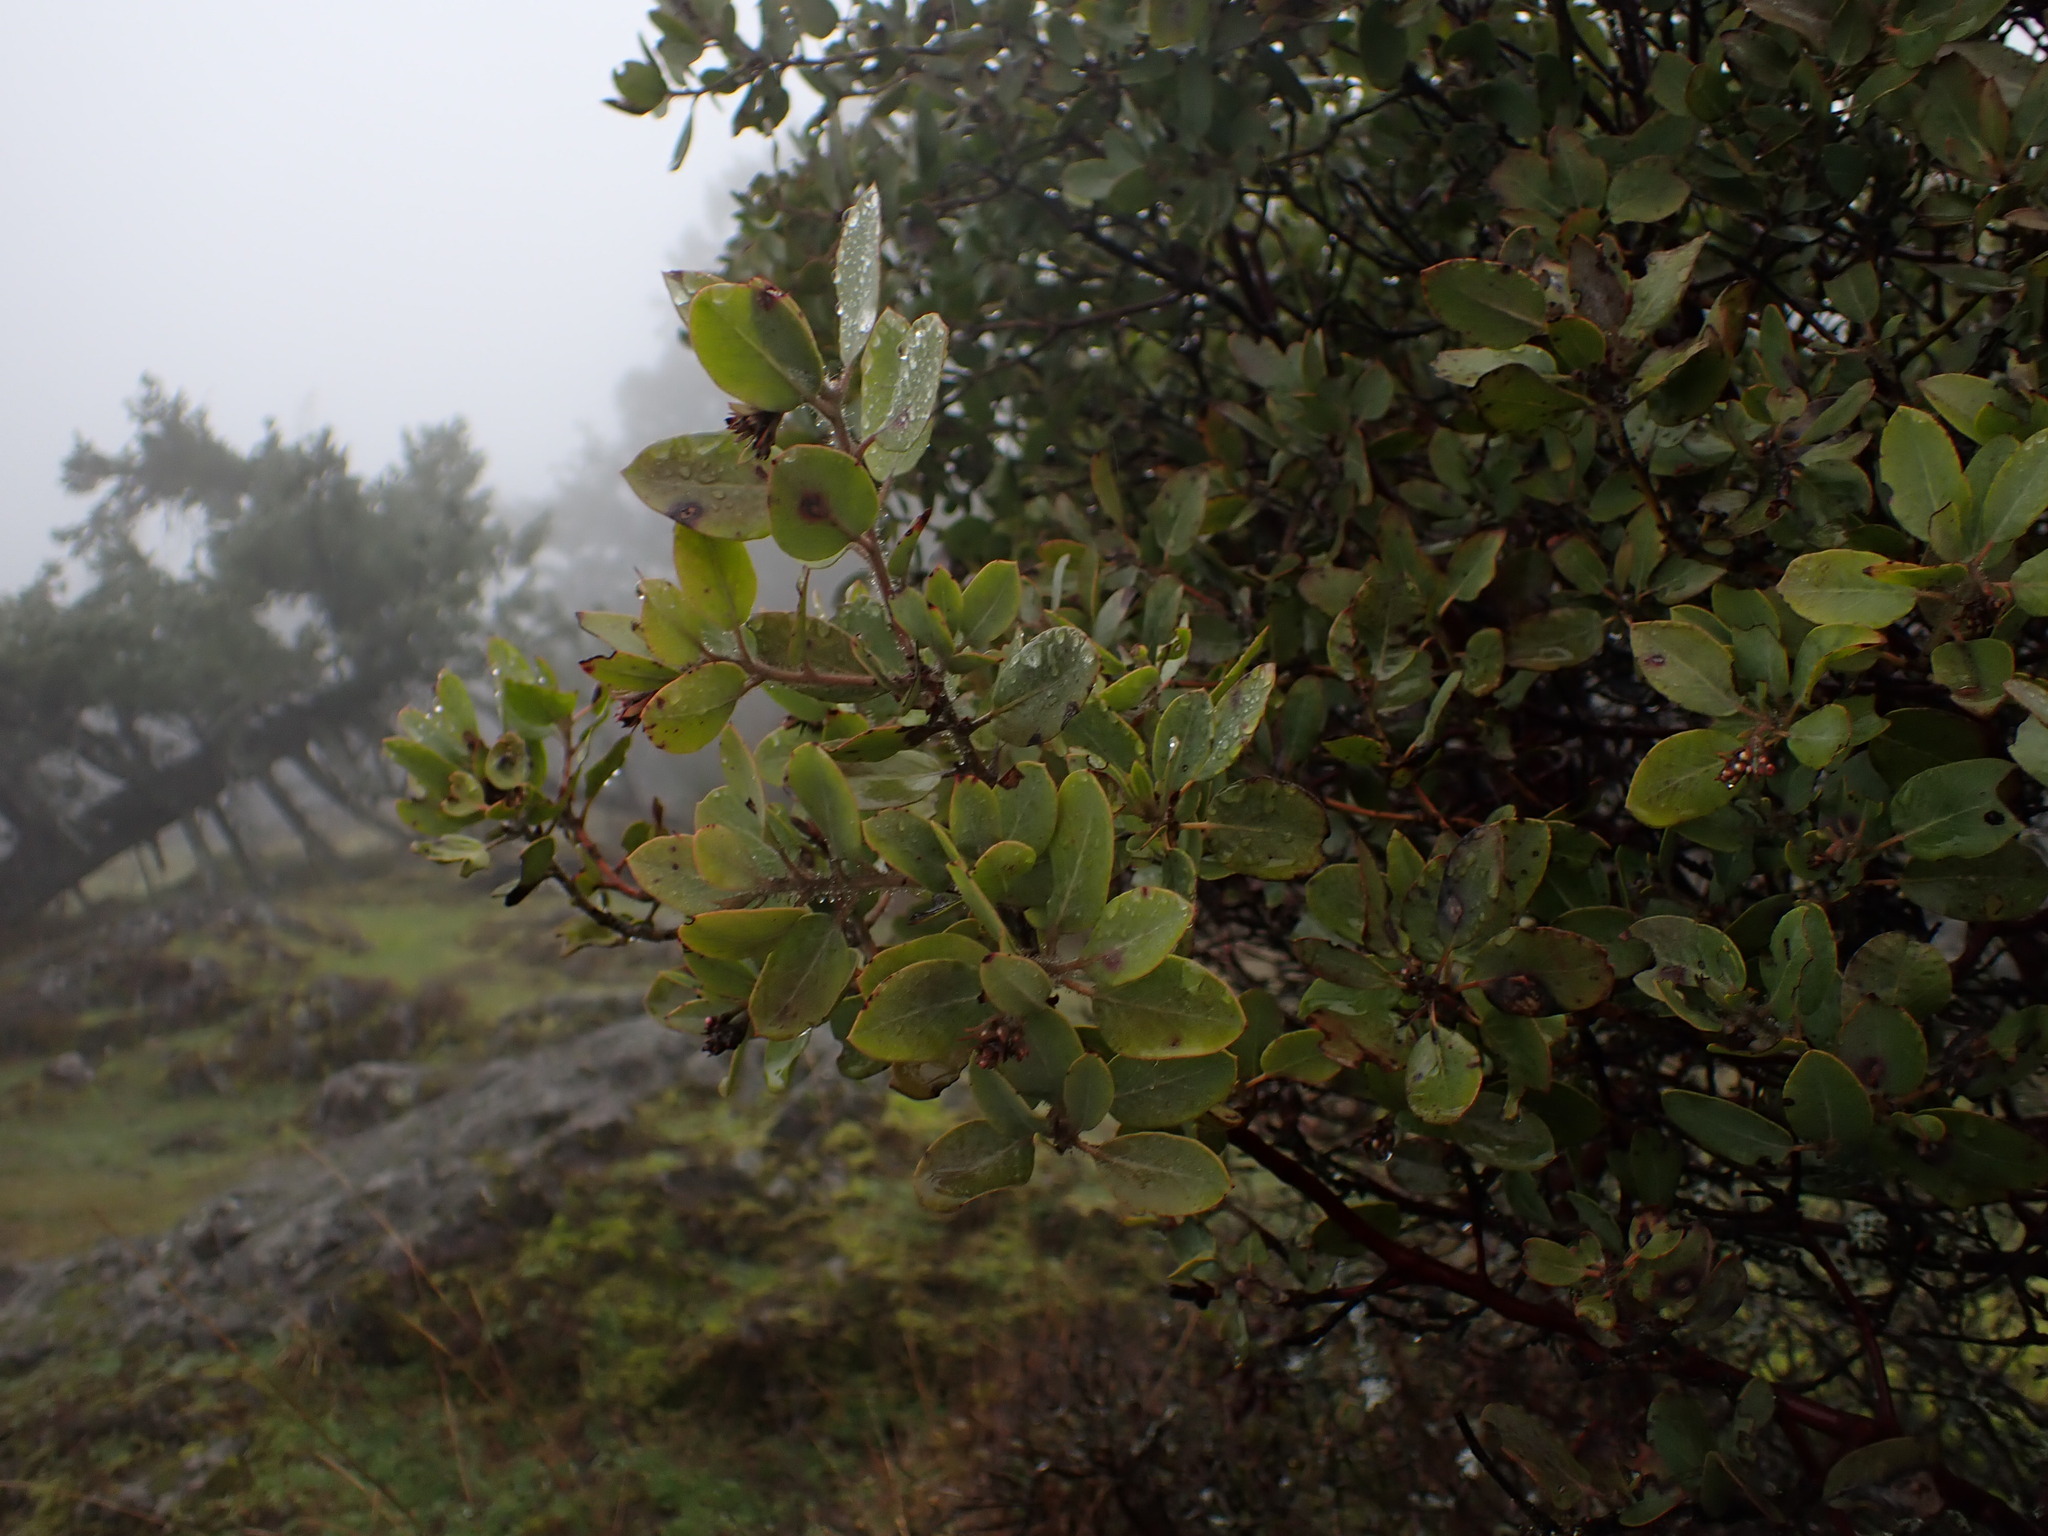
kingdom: Plantae
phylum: Tracheophyta
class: Magnoliopsida
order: Ericales
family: Ericaceae
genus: Arctostaphylos
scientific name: Arctostaphylos columbiana
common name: Bristly bearberry
